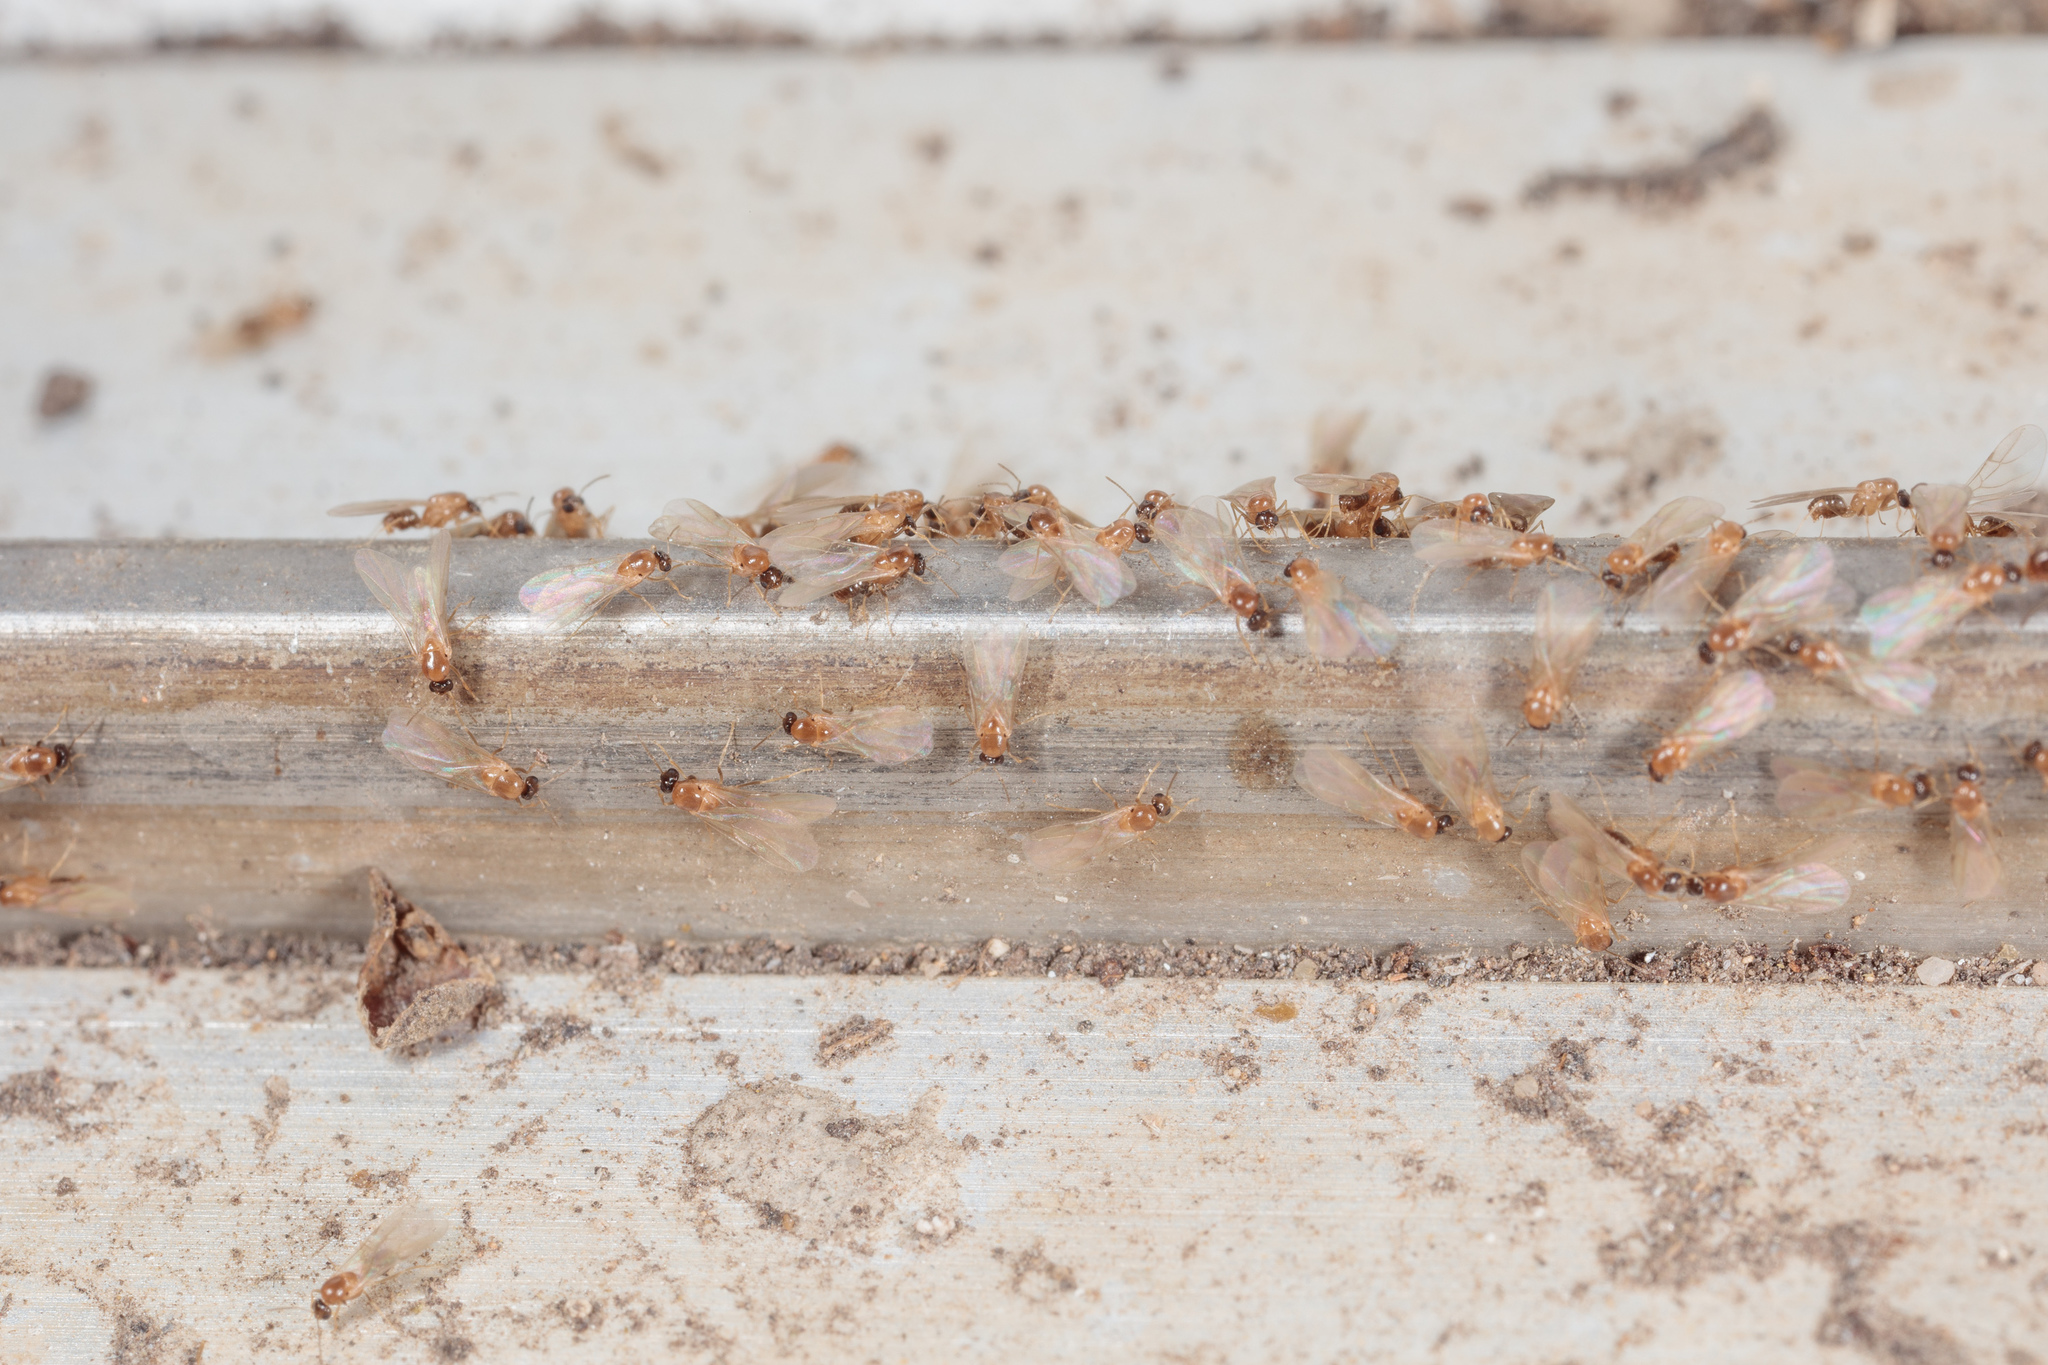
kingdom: Animalia
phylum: Arthropoda
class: Insecta
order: Hymenoptera
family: Formicidae
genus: Brachymyrmex
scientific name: Brachymyrmex patagonicus
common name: Dark rover ant
